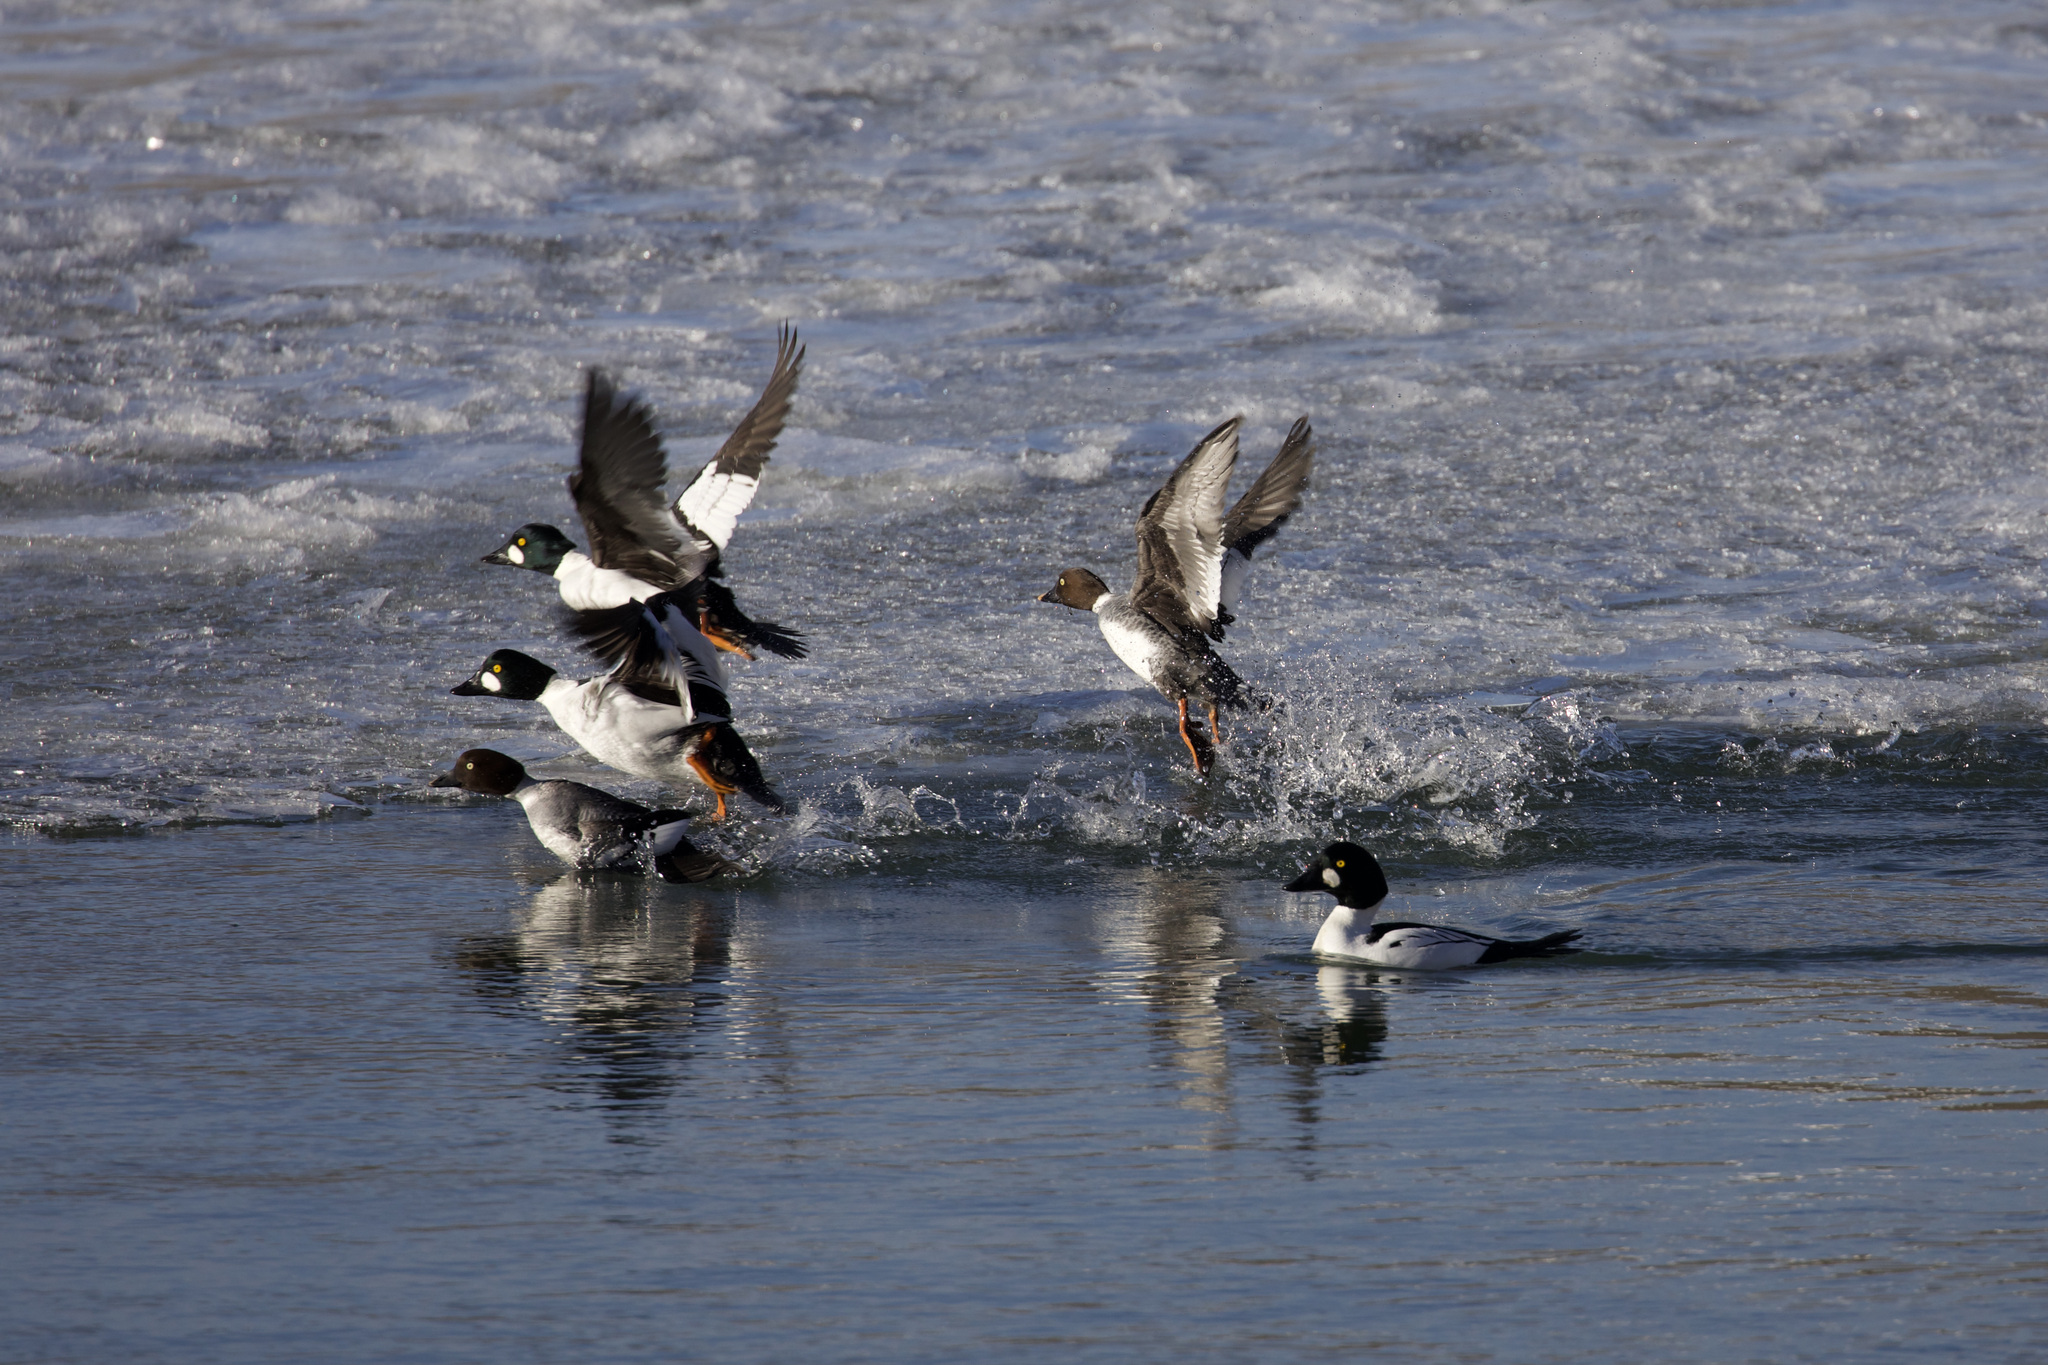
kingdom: Animalia
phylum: Chordata
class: Aves
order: Anseriformes
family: Anatidae
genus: Bucephala
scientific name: Bucephala clangula
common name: Common goldeneye
